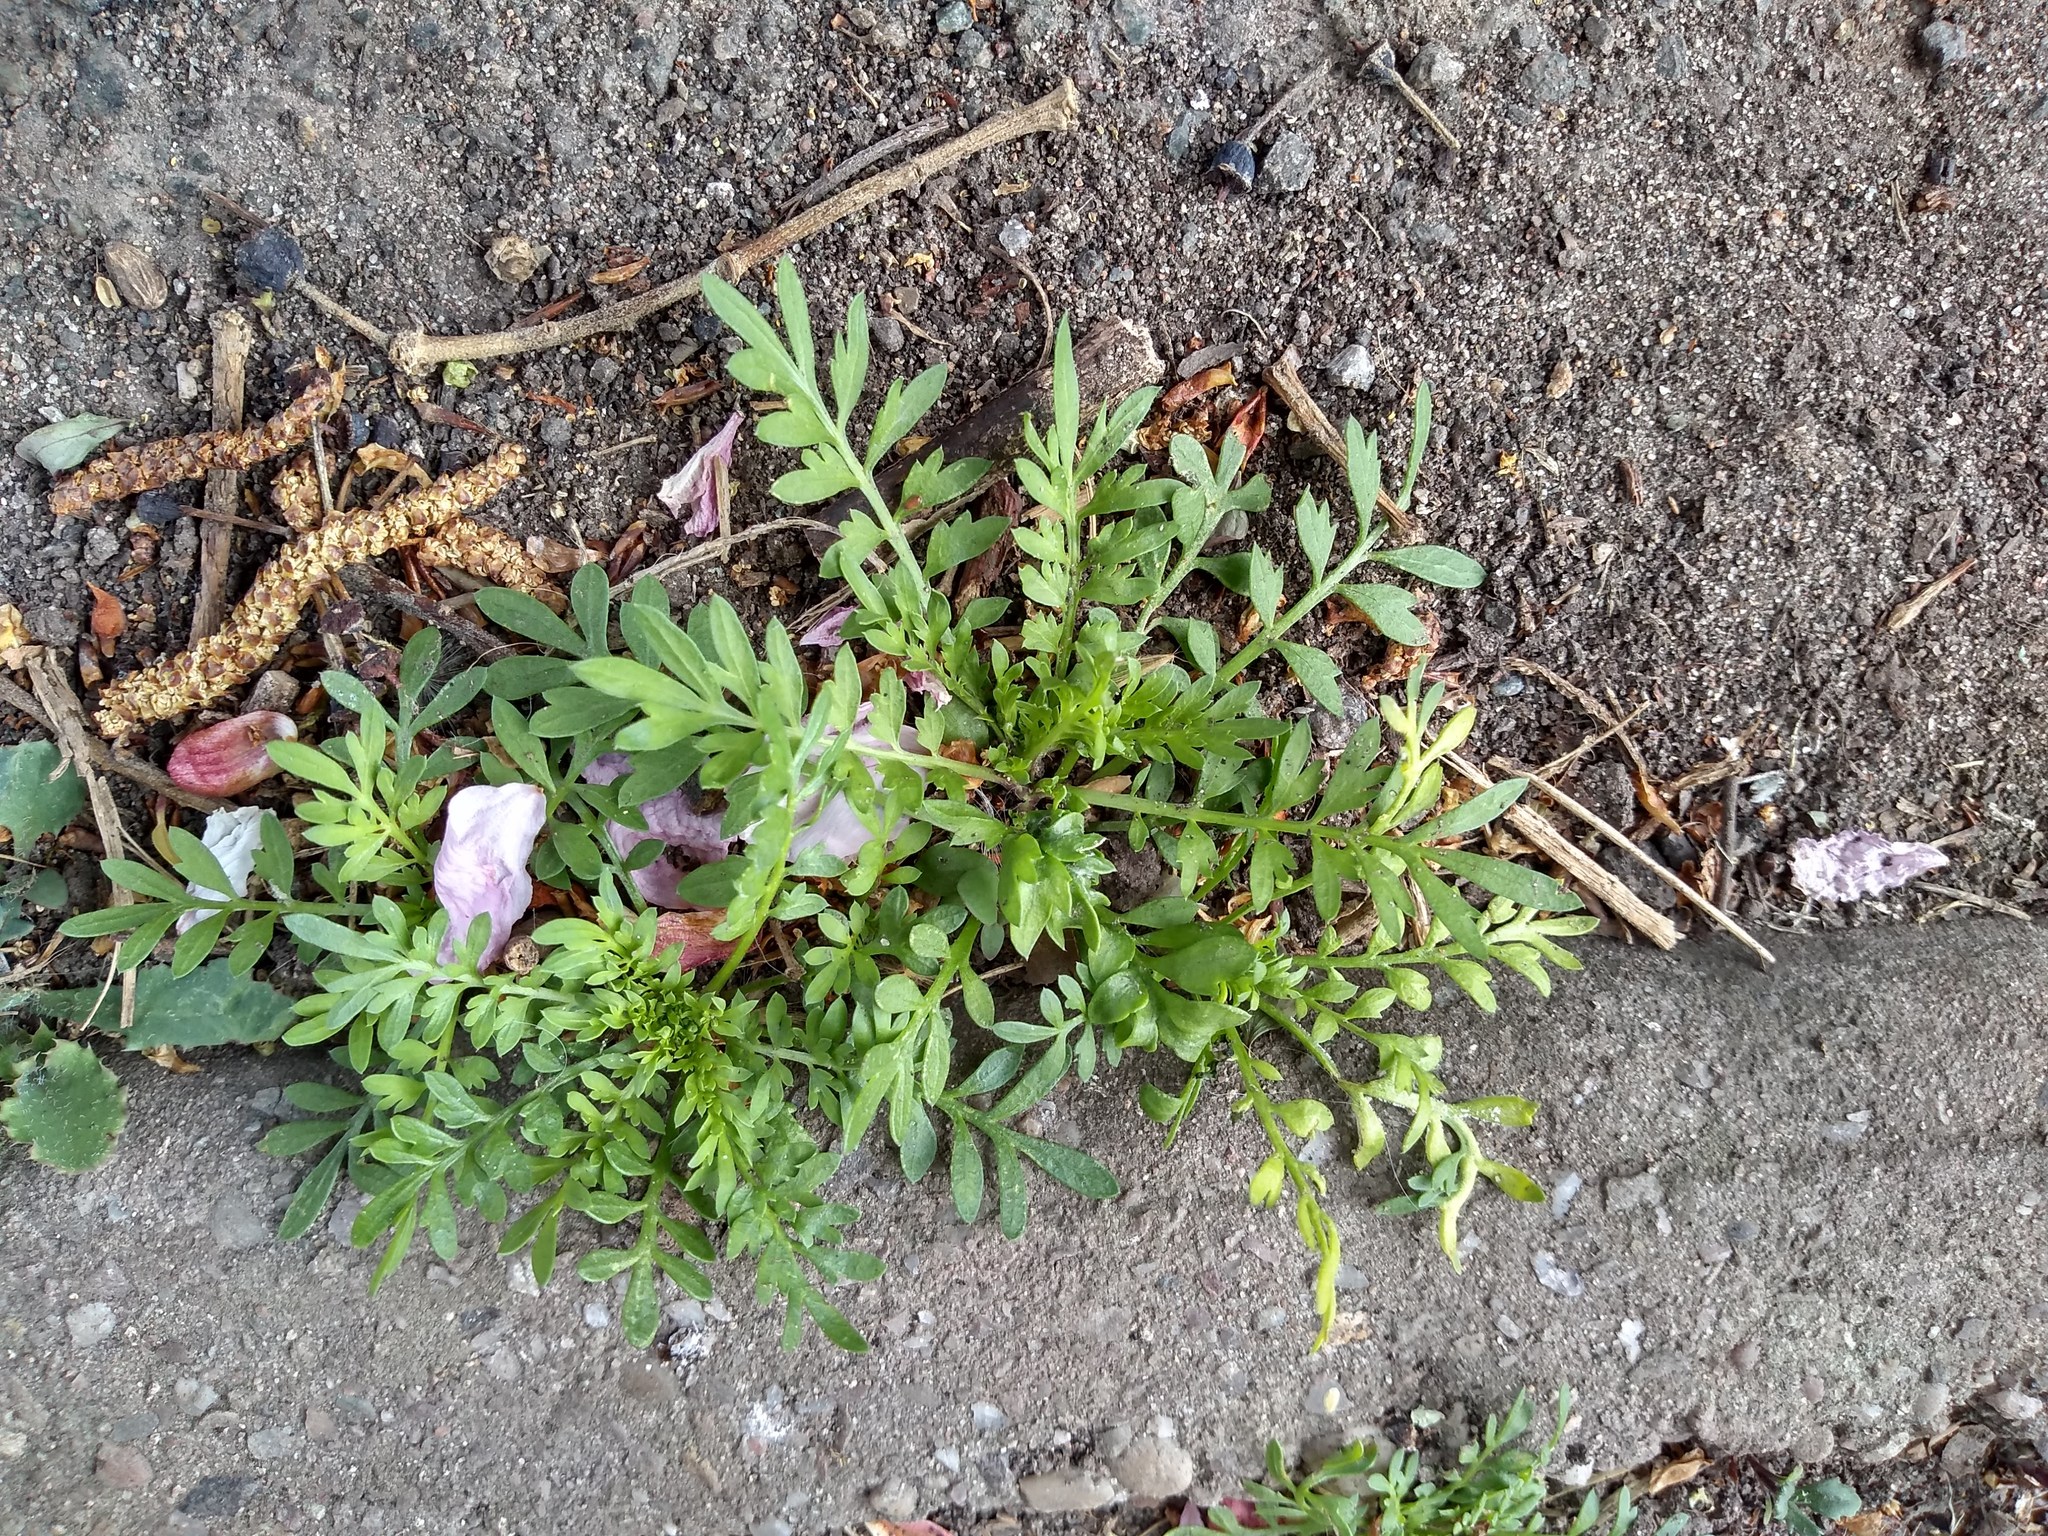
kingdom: Plantae
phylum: Tracheophyta
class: Magnoliopsida
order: Brassicales
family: Brassicaceae
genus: Lepidium
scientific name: Lepidium didymum
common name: Lesser swinecress
